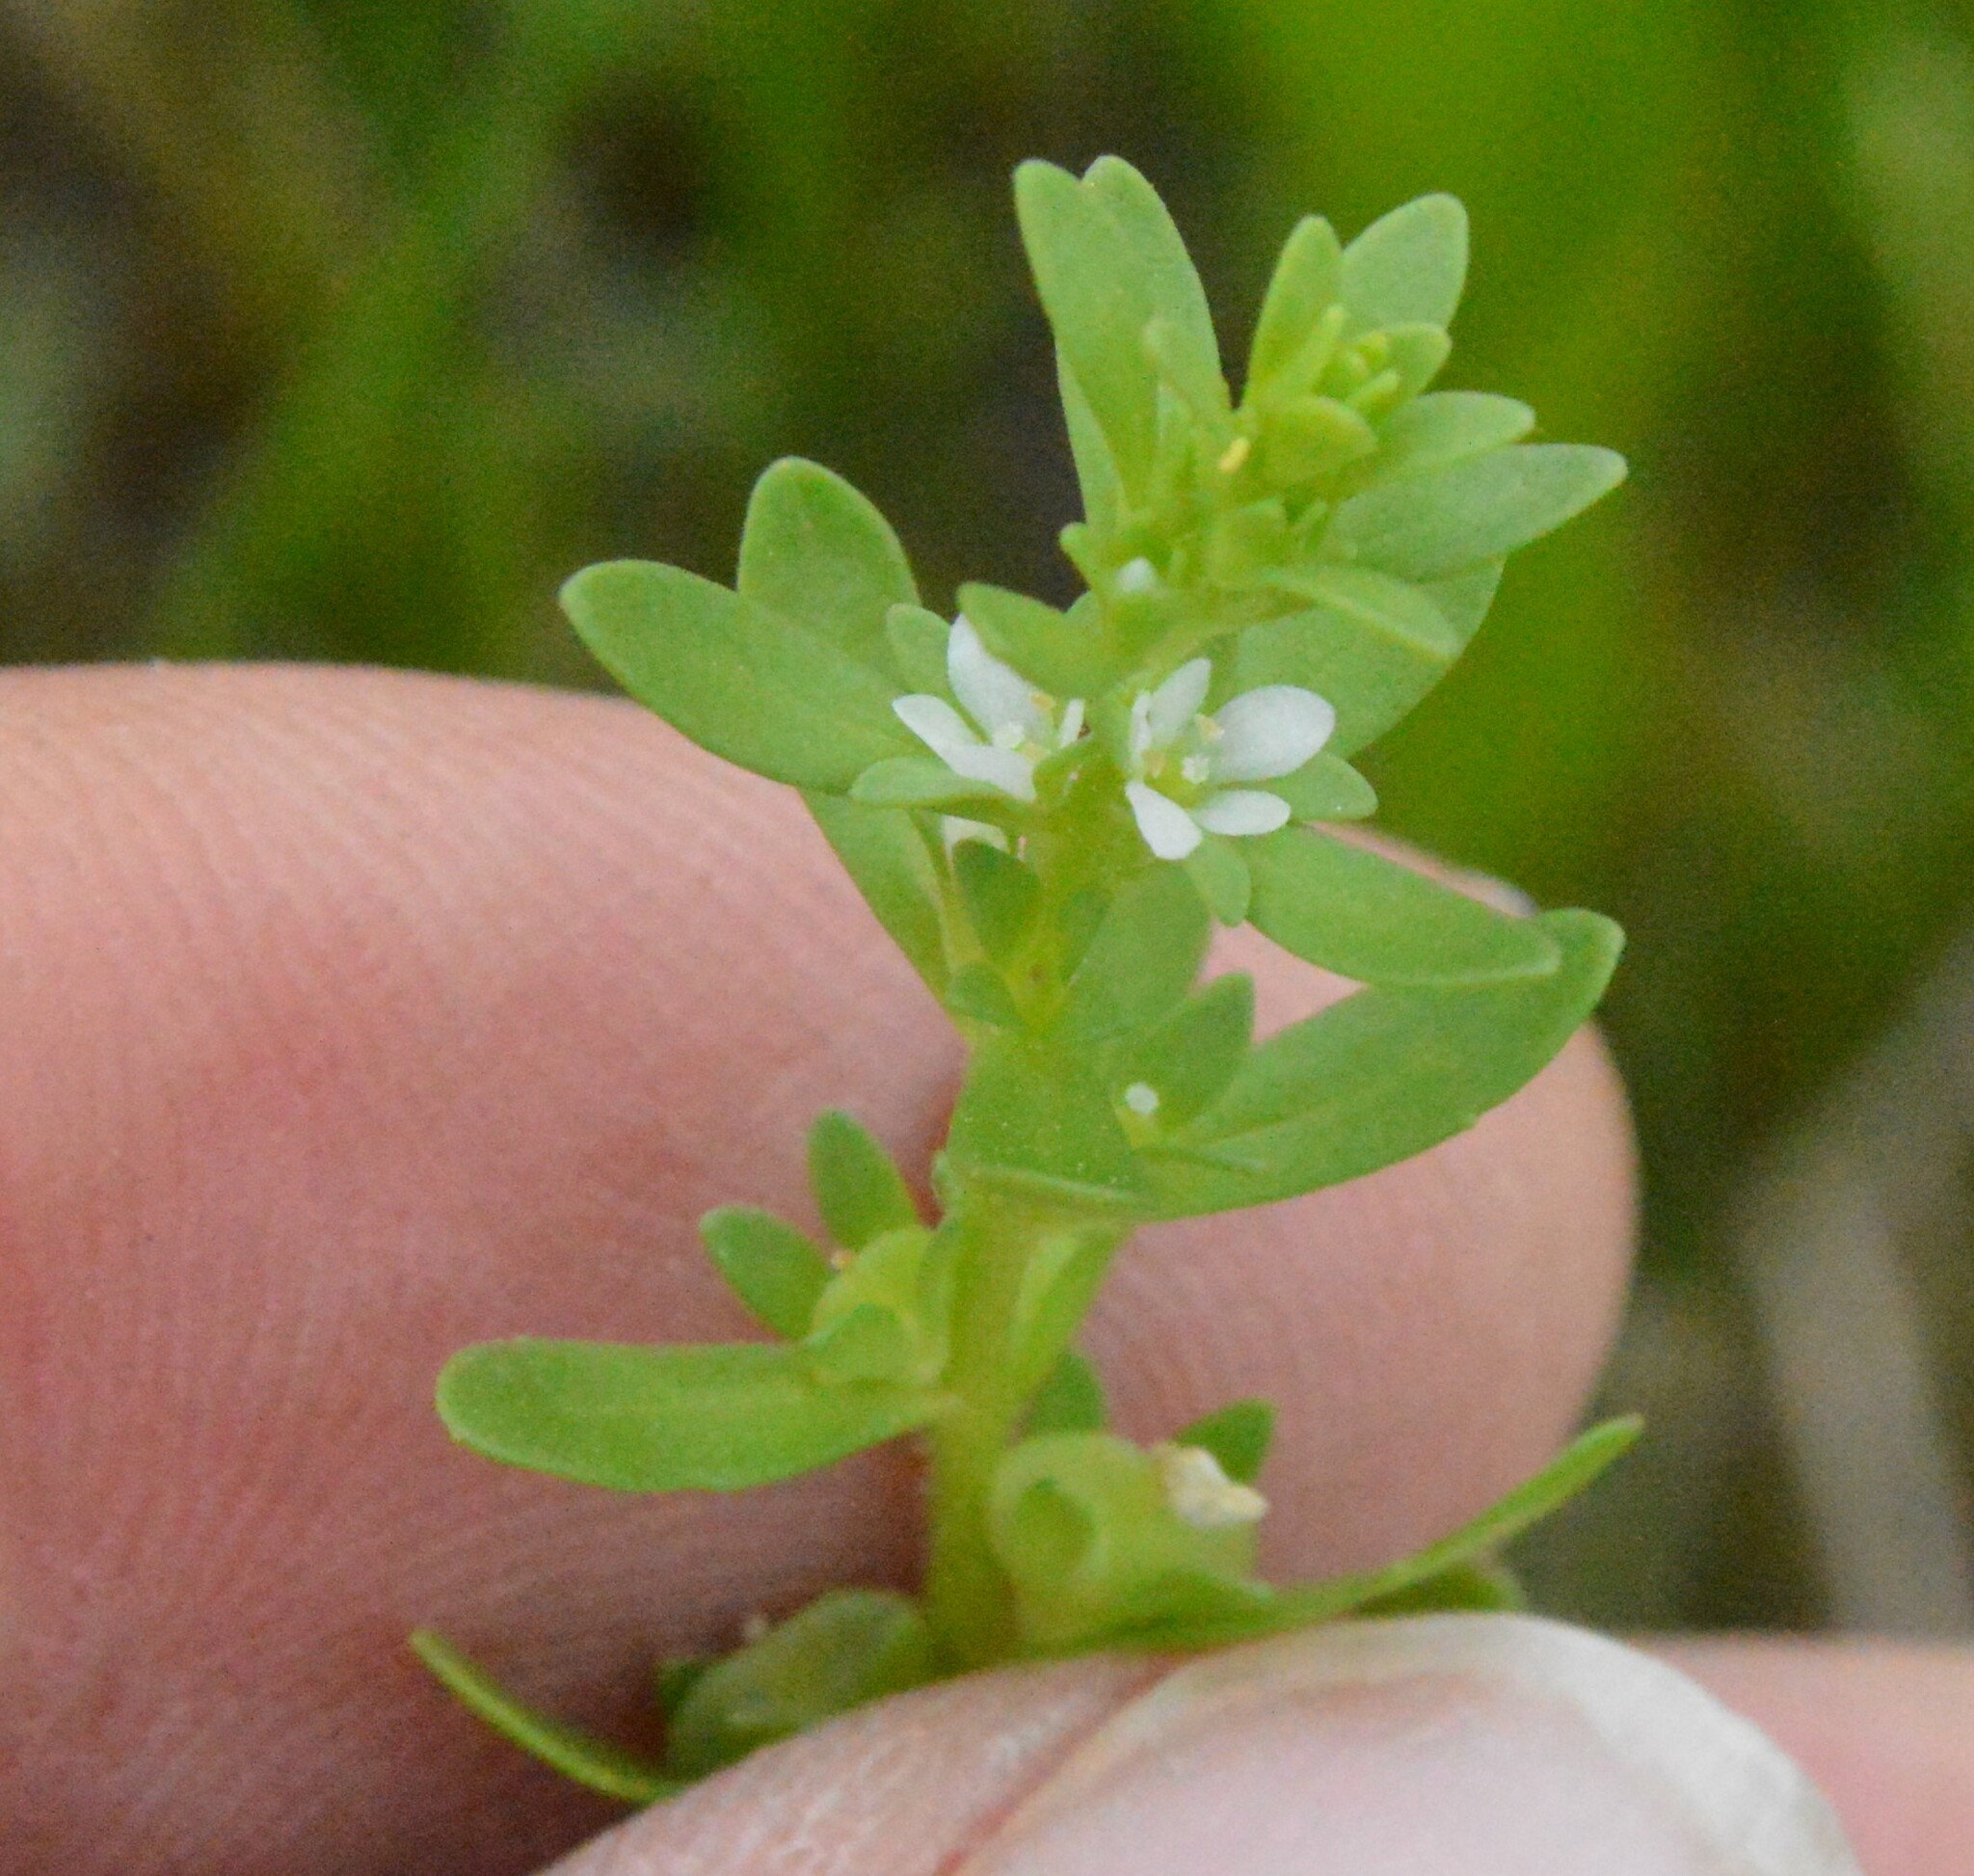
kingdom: Plantae
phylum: Tracheophyta
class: Magnoliopsida
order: Lamiales
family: Plantaginaceae
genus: Veronica
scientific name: Veronica peregrina
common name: Neckweed
